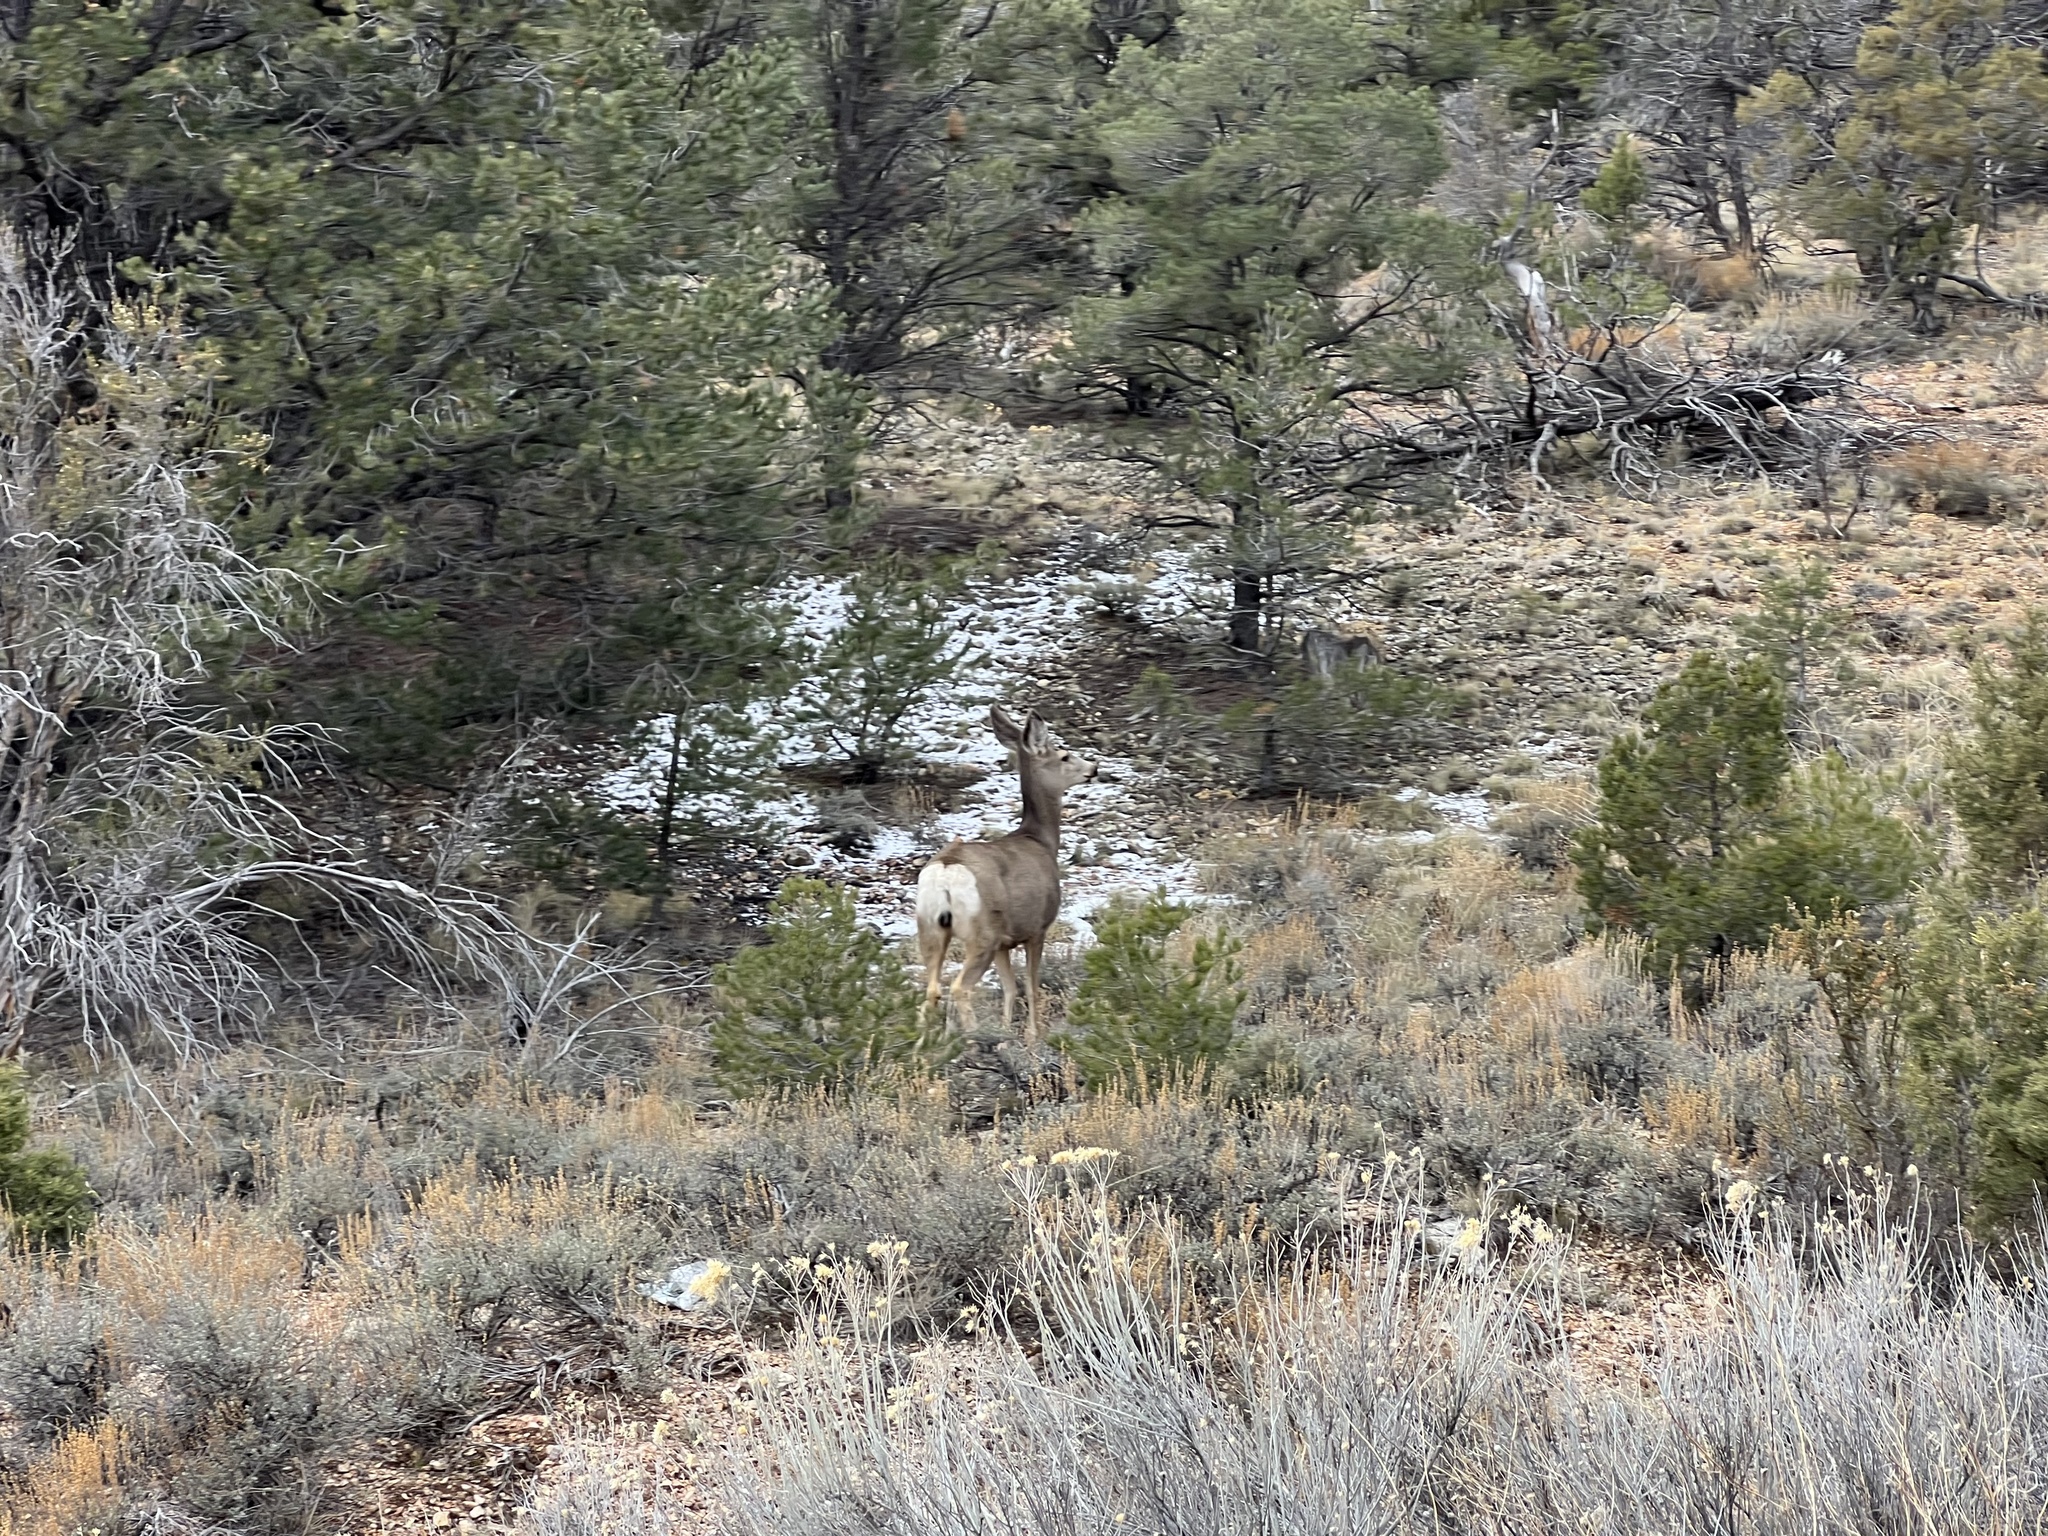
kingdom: Animalia
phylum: Chordata
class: Mammalia
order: Artiodactyla
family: Cervidae
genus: Odocoileus
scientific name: Odocoileus hemionus
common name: Mule deer
